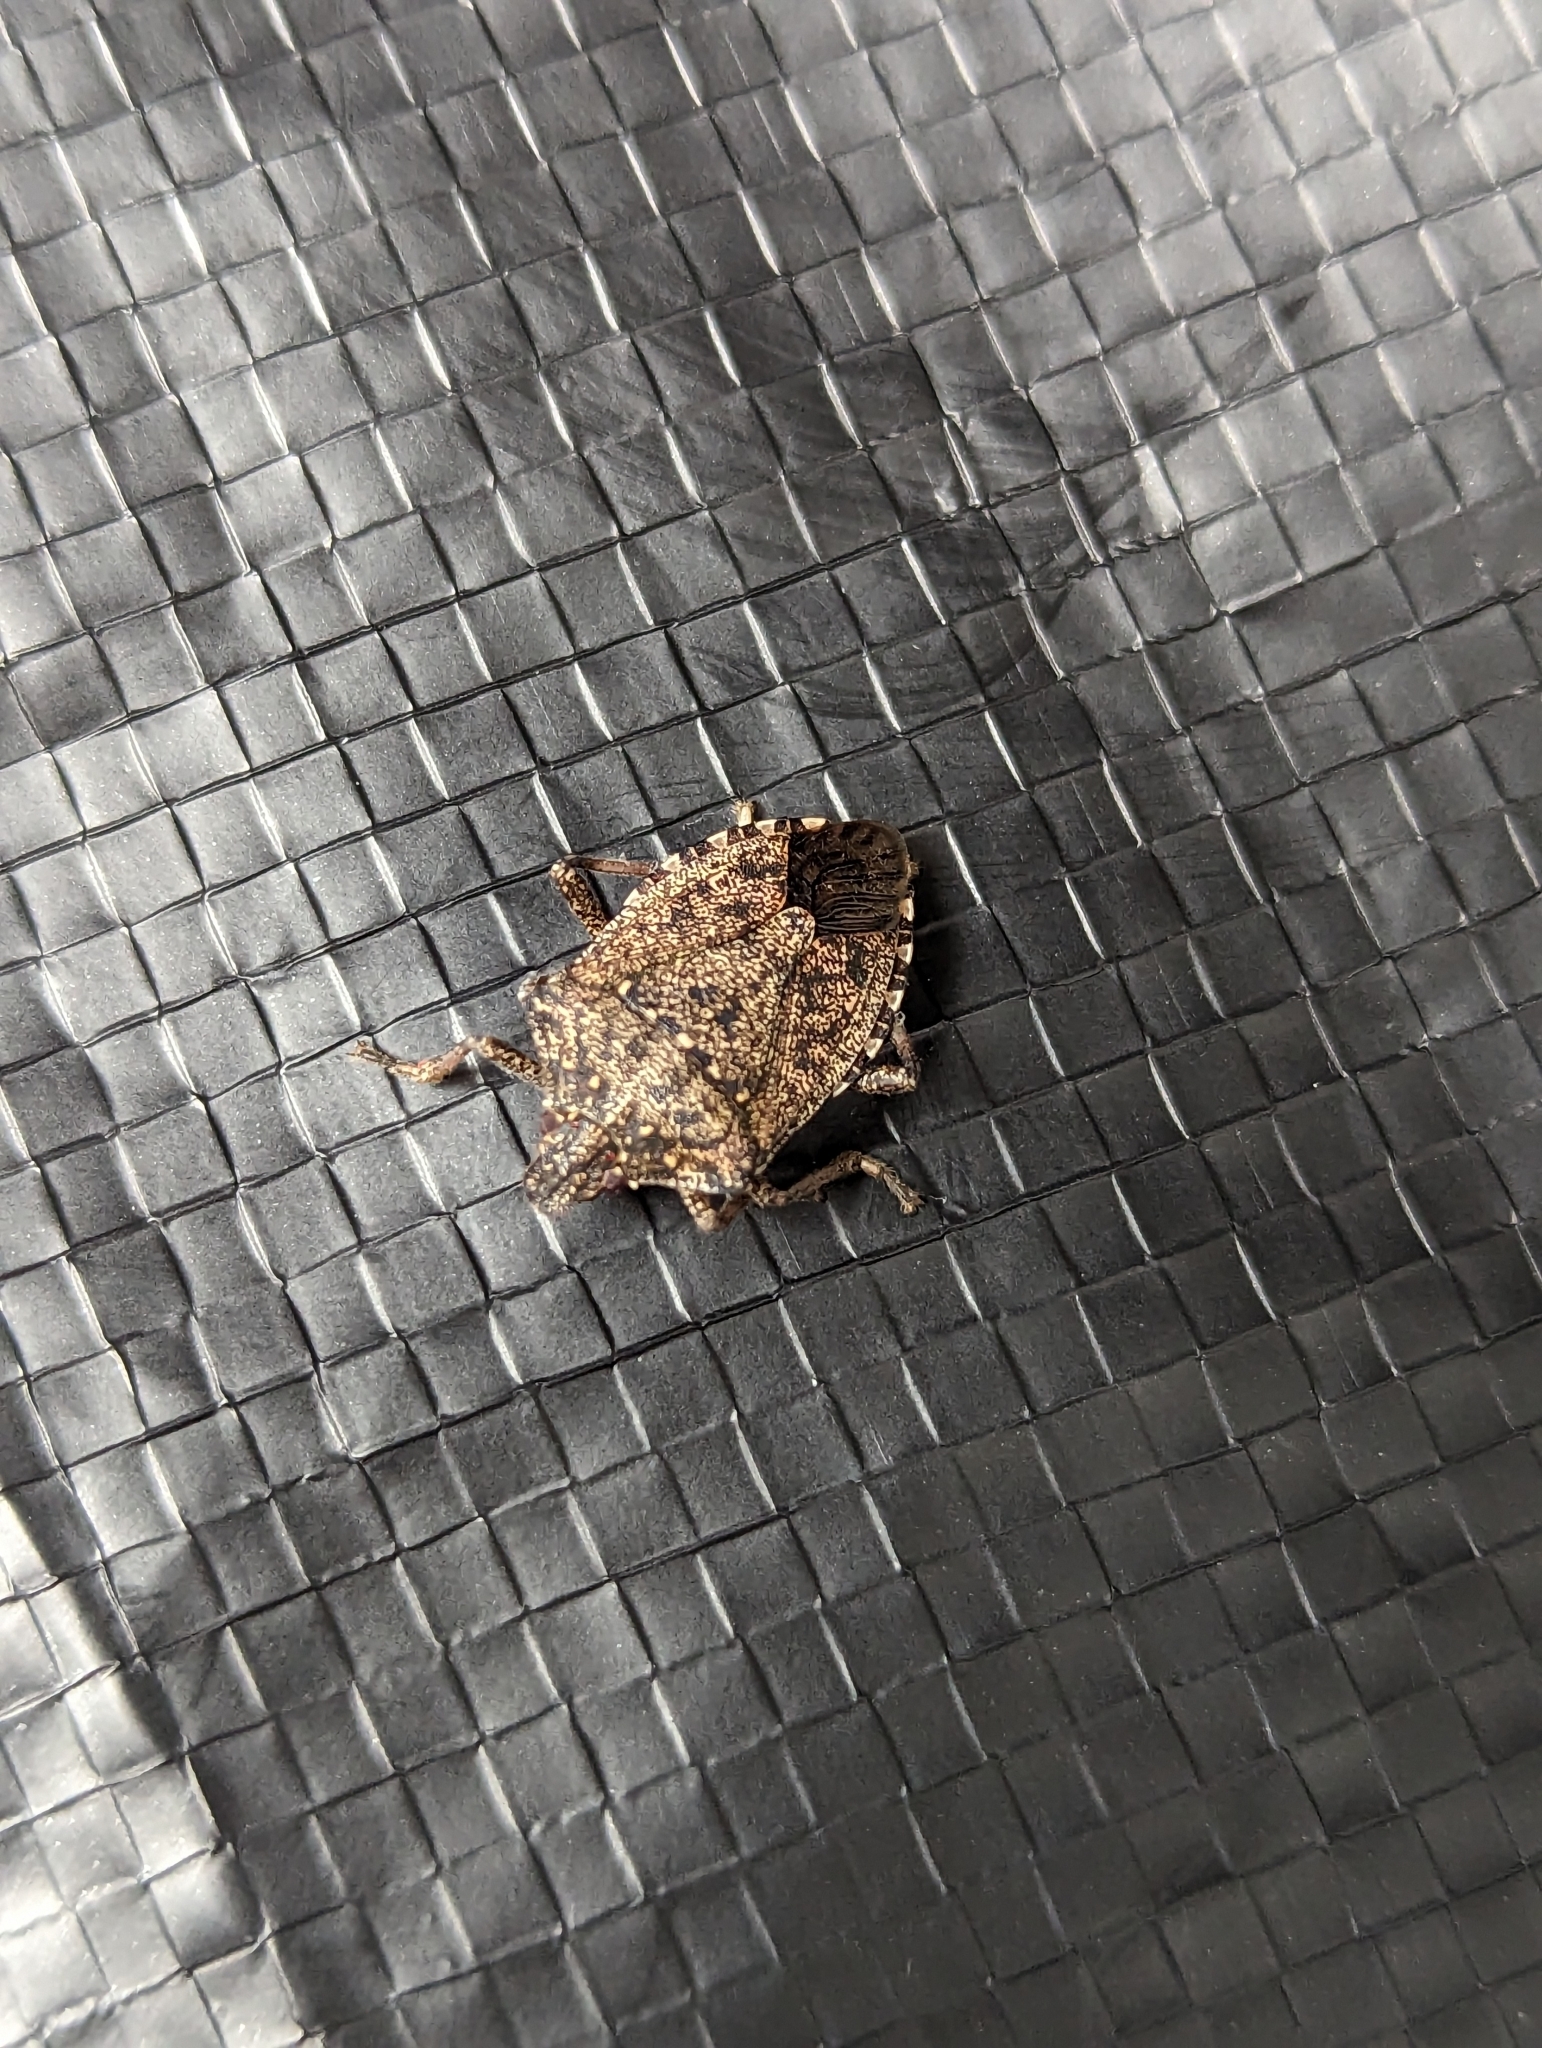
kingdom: Animalia
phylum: Arthropoda
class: Insecta
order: Hemiptera
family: Pentatomidae
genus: Halyomorpha
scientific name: Halyomorpha halys
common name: Brown marmorated stink bug
